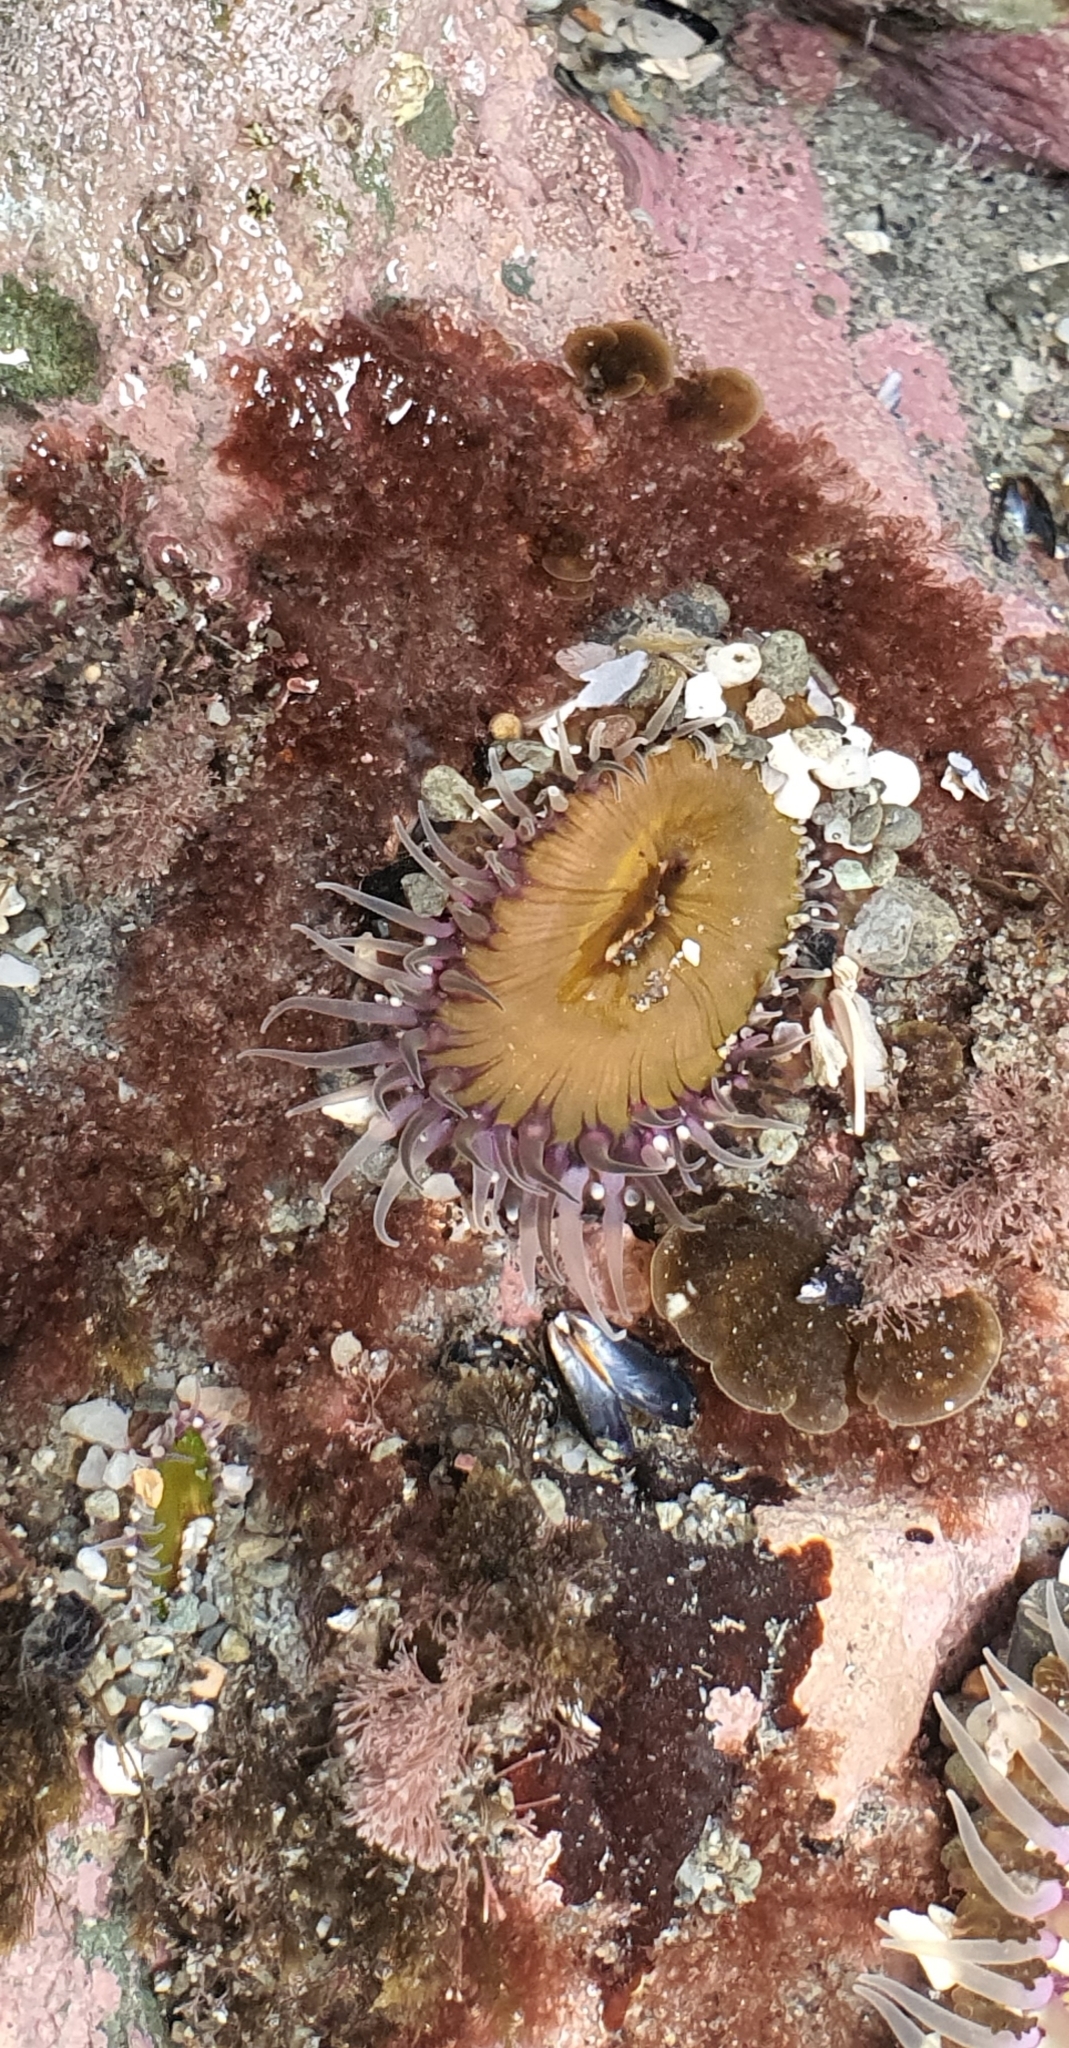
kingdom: Animalia
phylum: Cnidaria
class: Anthozoa
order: Actiniaria
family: Actiniidae
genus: Oulactis
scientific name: Oulactis magna
